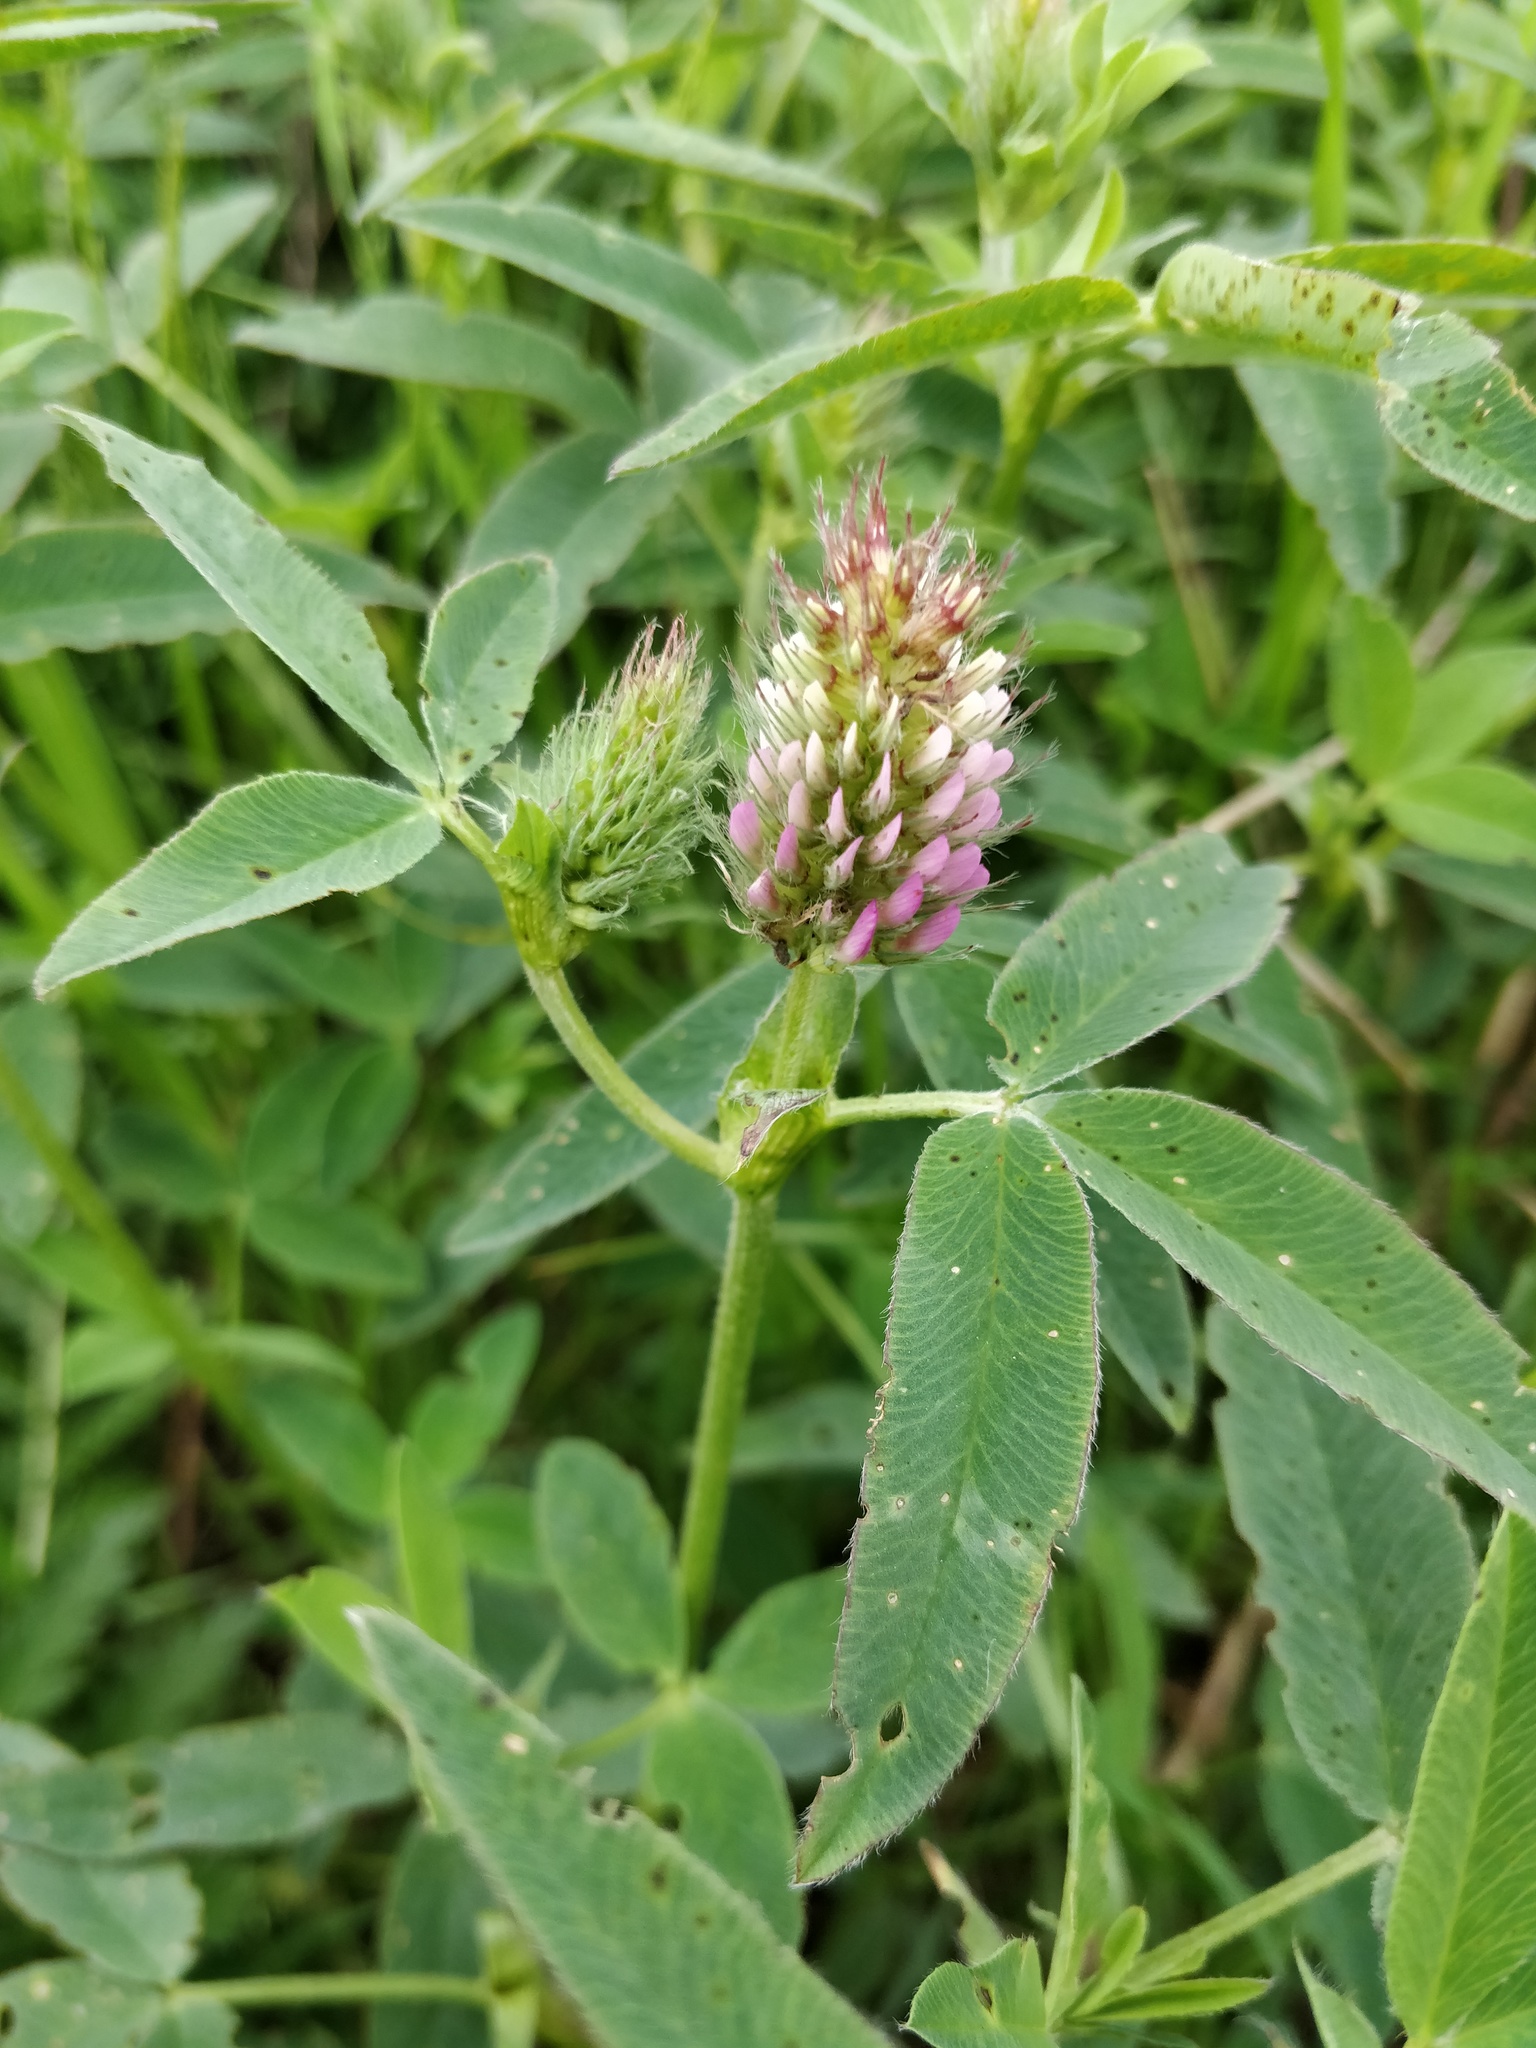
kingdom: Plantae
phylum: Tracheophyta
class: Magnoliopsida
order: Fabales
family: Fabaceae
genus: Trifolium
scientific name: Trifolium medium
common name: Zigzag clover
